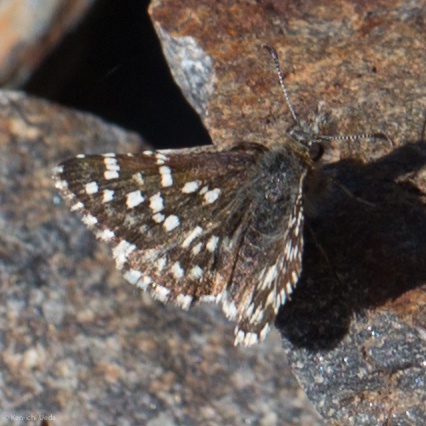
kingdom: Animalia
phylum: Arthropoda
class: Insecta
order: Lepidoptera
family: Hesperiidae
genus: Pyrgus
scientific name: Pyrgus ruralis
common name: Two-banded checkered-skipper
